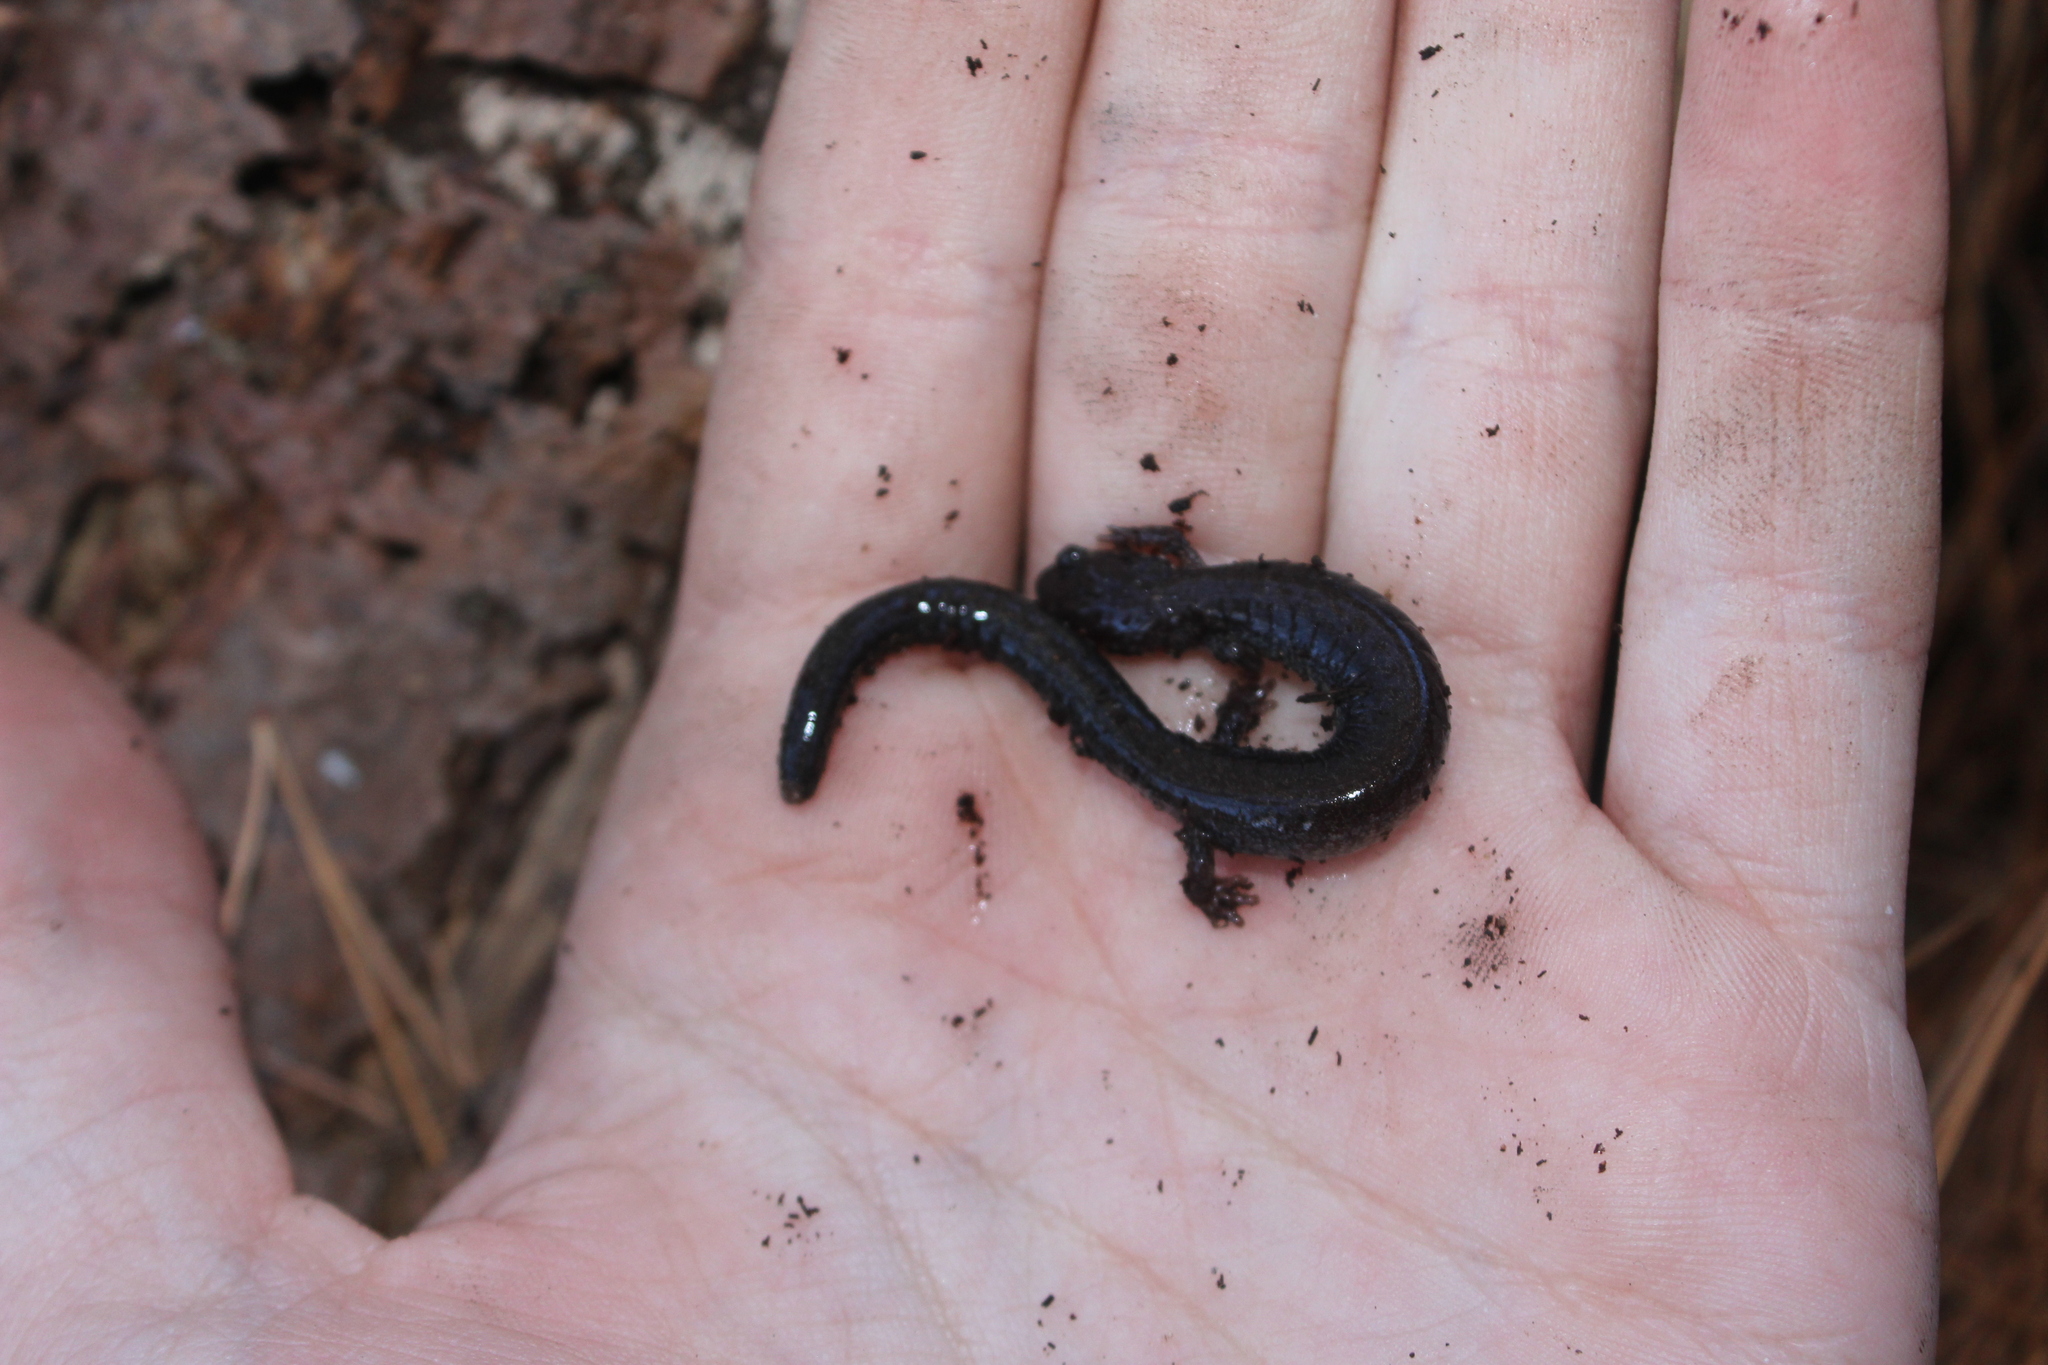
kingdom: Animalia
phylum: Chordata
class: Amphibia
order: Caudata
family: Plethodontidae
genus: Plethodon
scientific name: Plethodon cinereus
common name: Redback salamander
